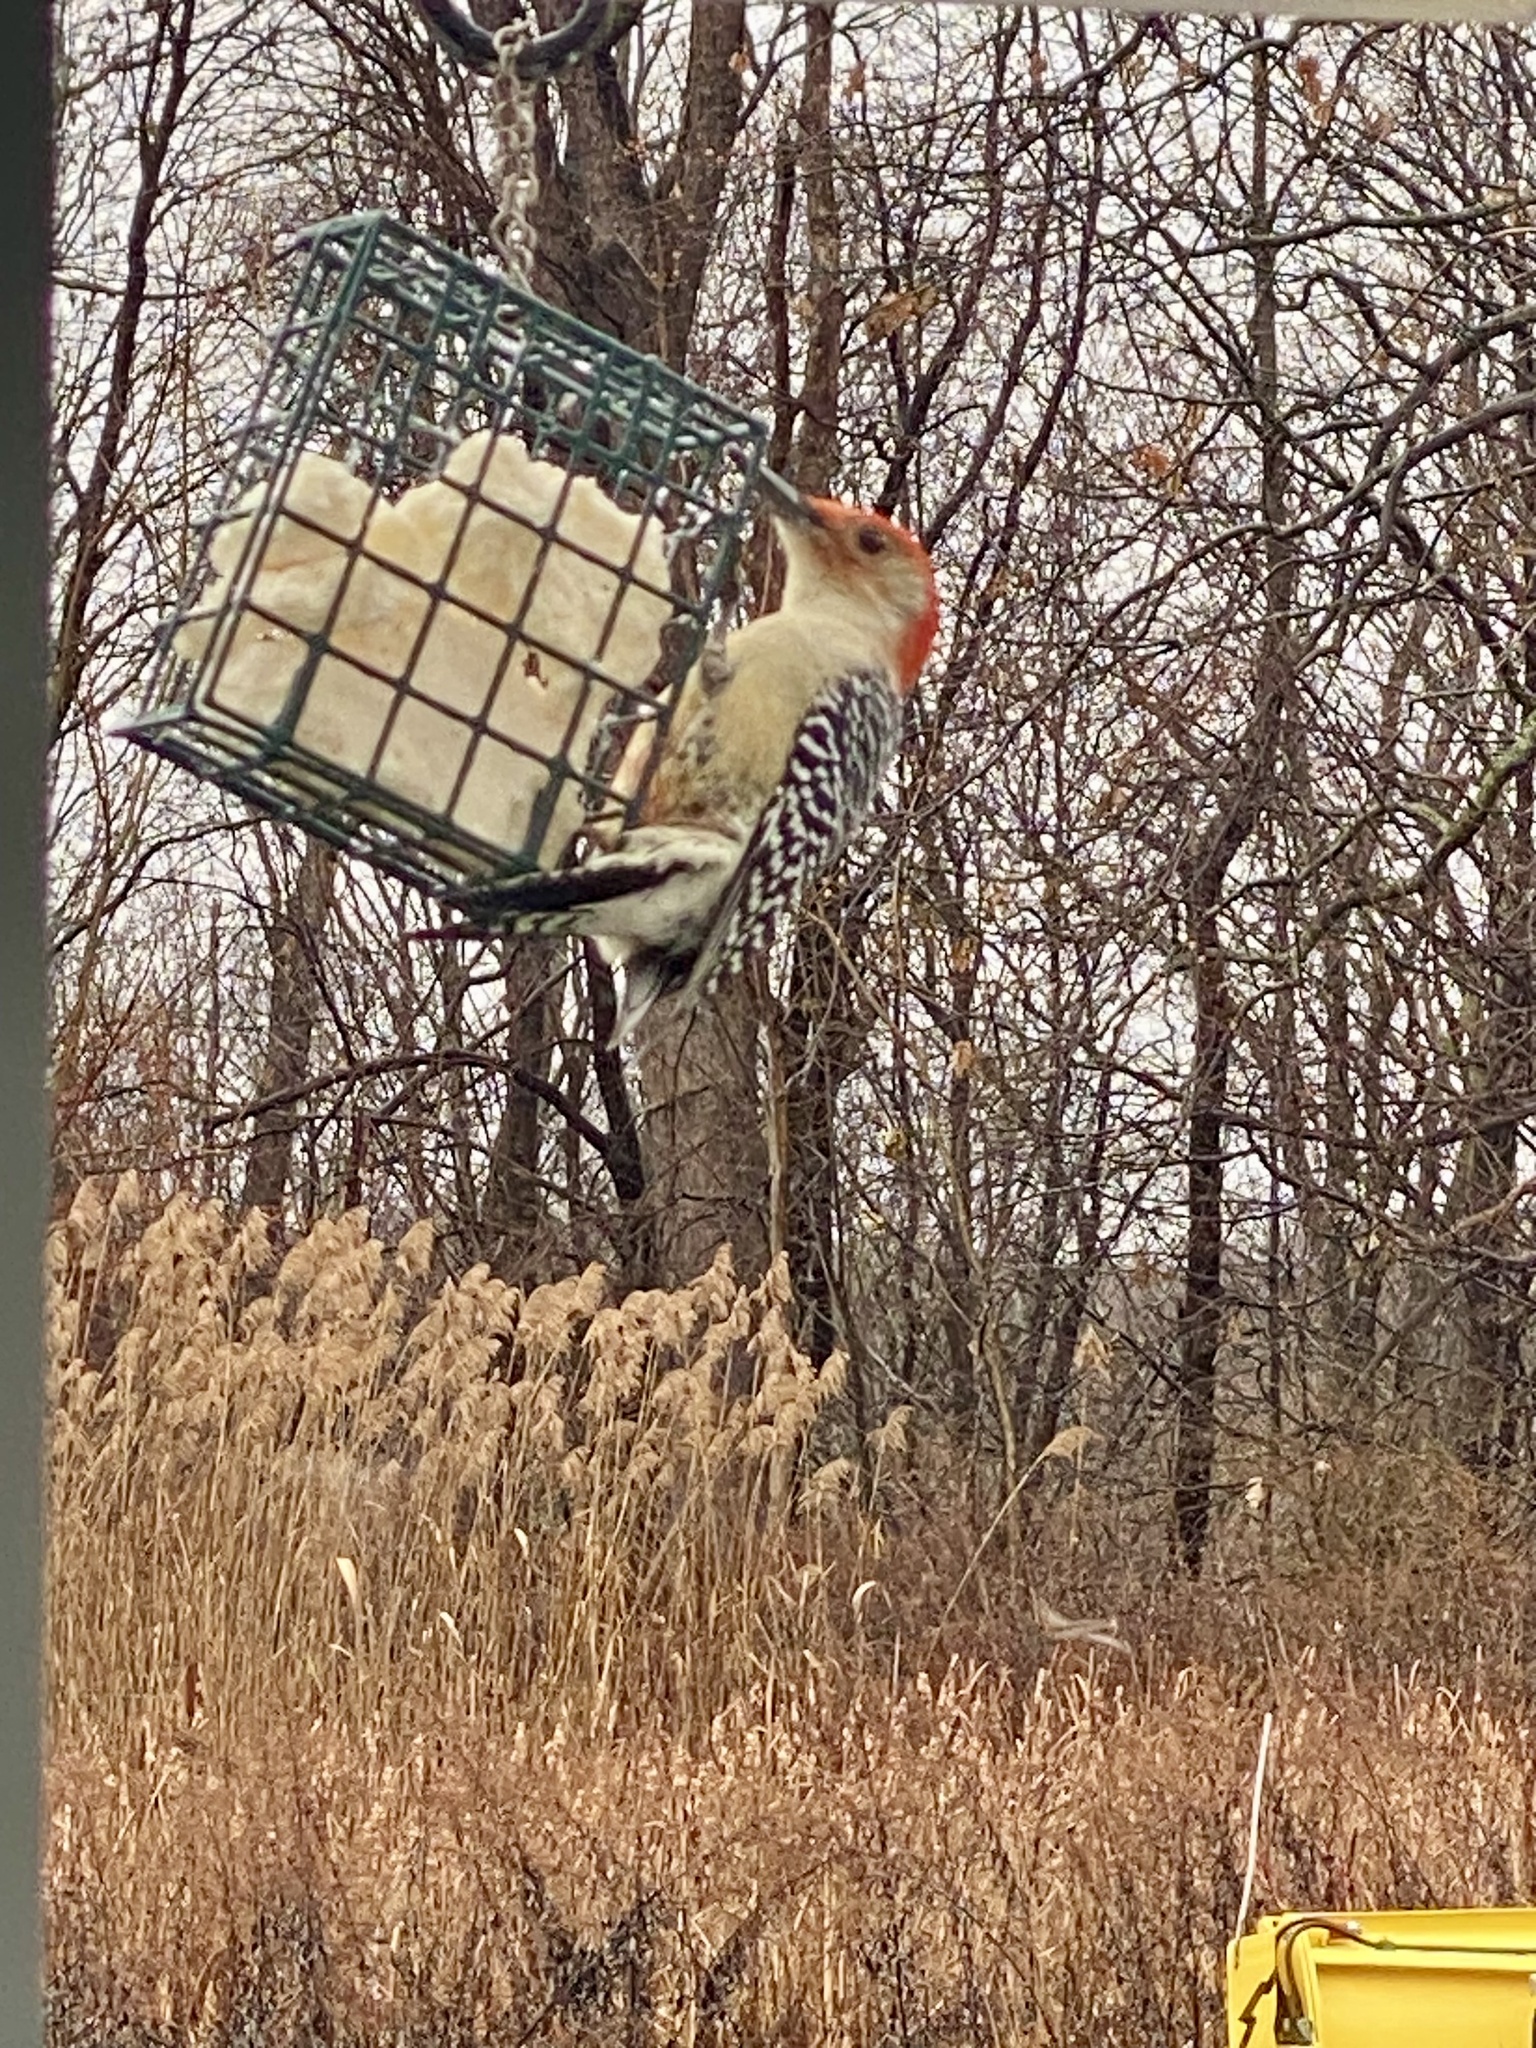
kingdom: Animalia
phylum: Chordata
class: Aves
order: Piciformes
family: Picidae
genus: Melanerpes
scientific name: Melanerpes carolinus
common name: Red-bellied woodpecker
